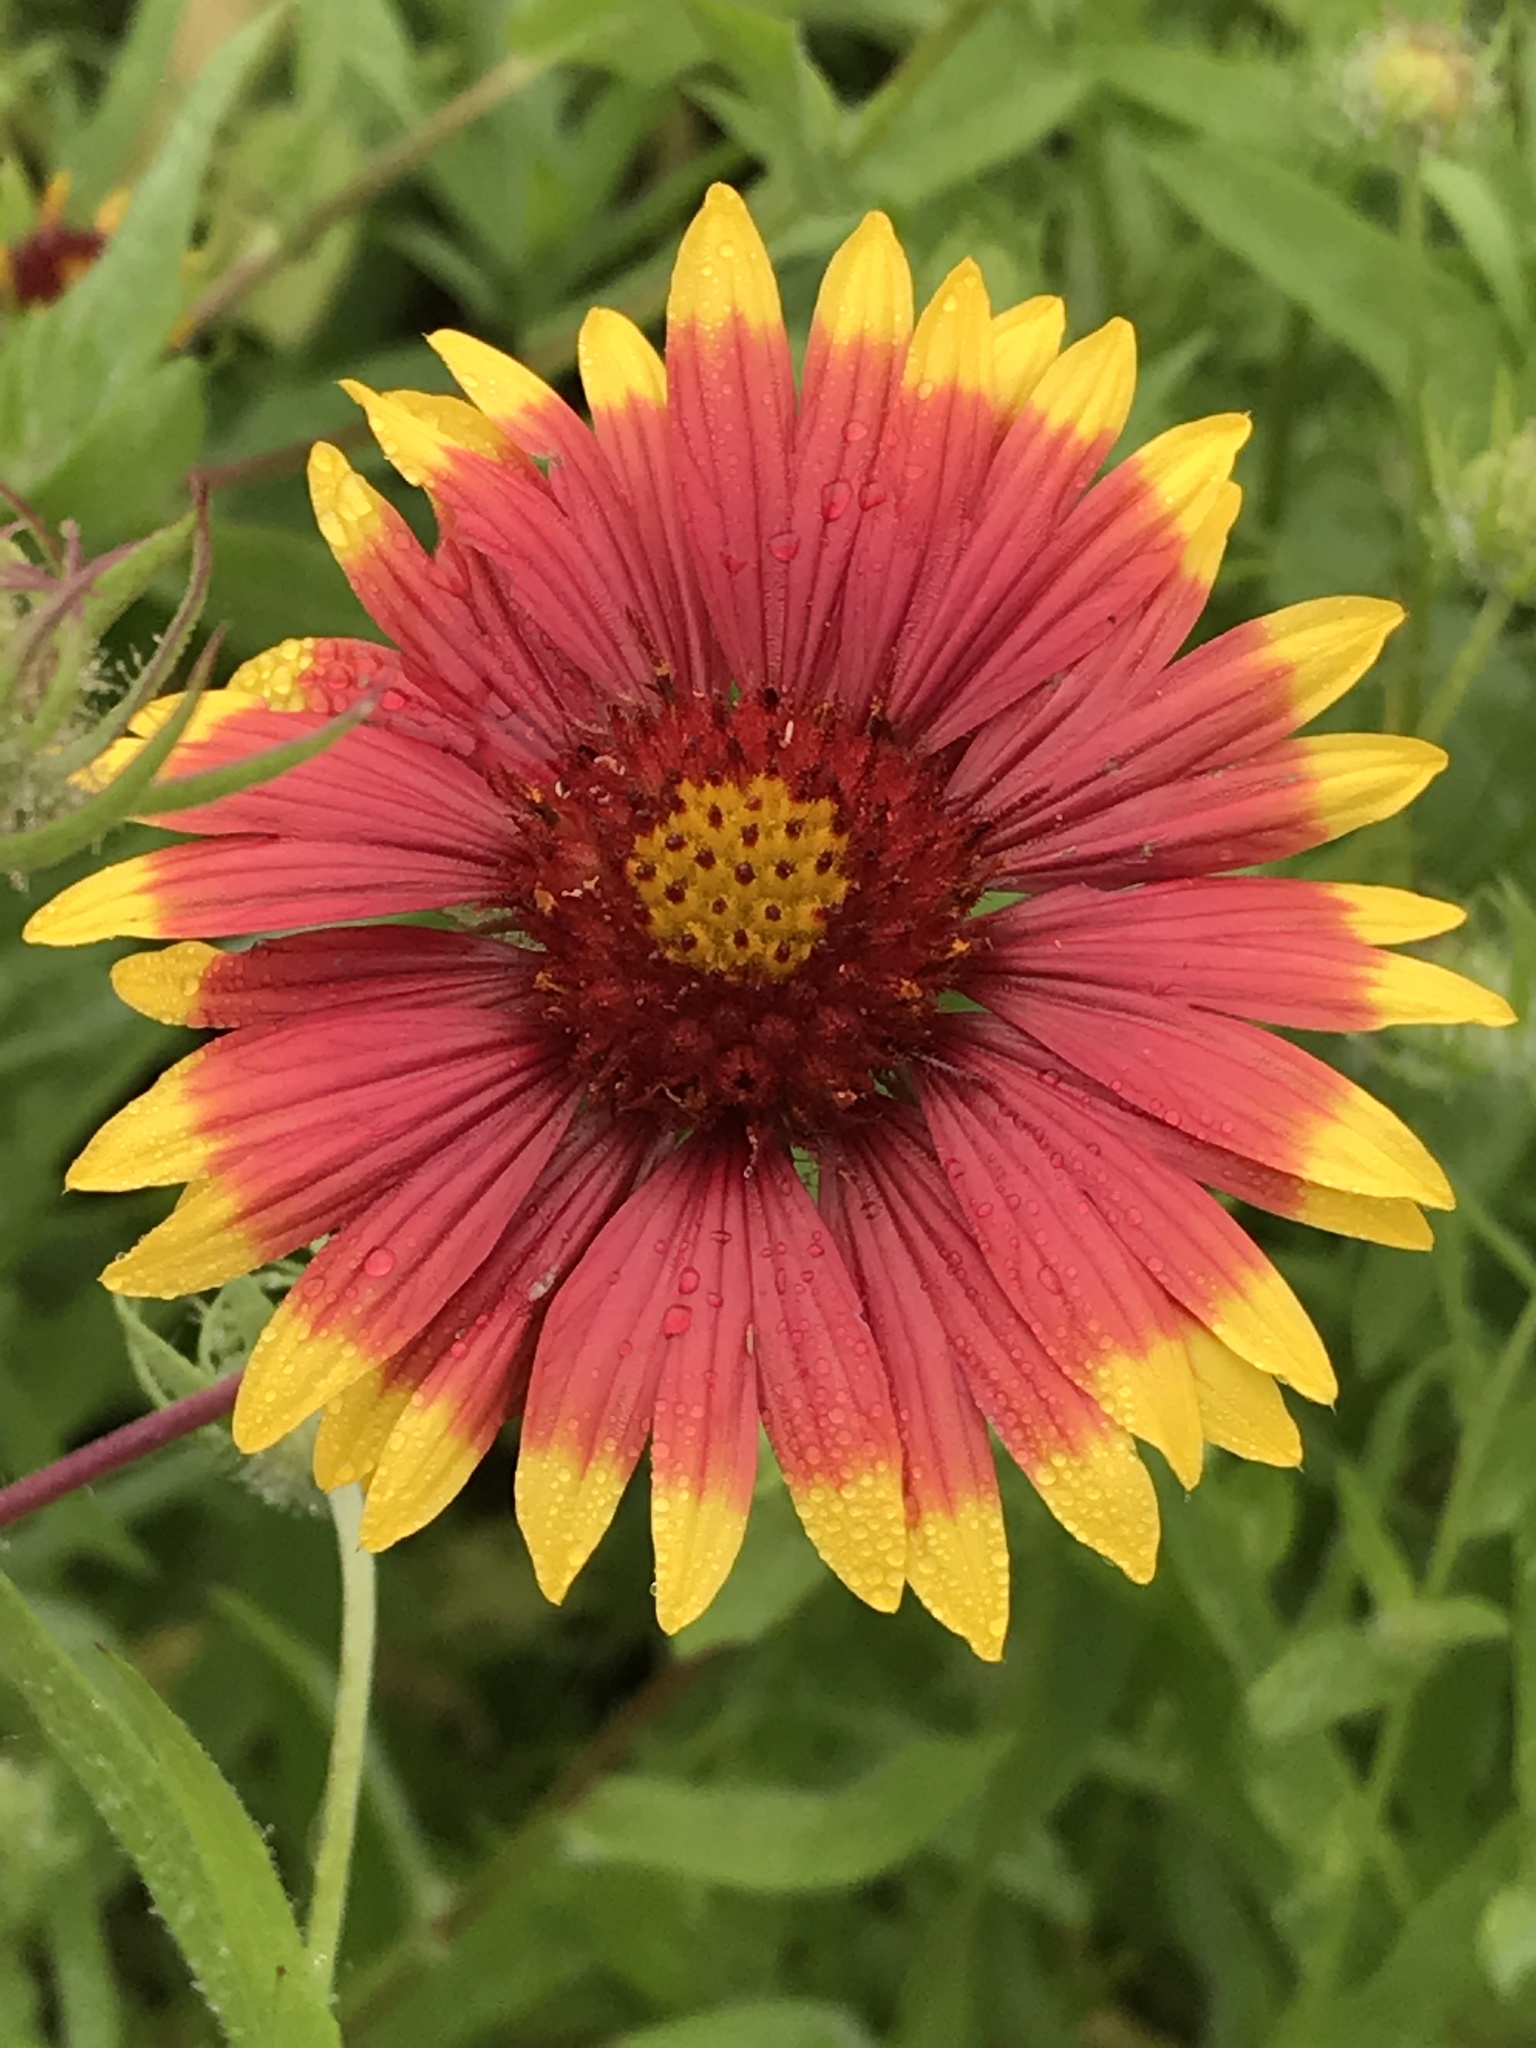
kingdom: Plantae
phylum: Tracheophyta
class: Magnoliopsida
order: Asterales
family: Asteraceae
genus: Gaillardia
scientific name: Gaillardia pulchella
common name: Firewheel
